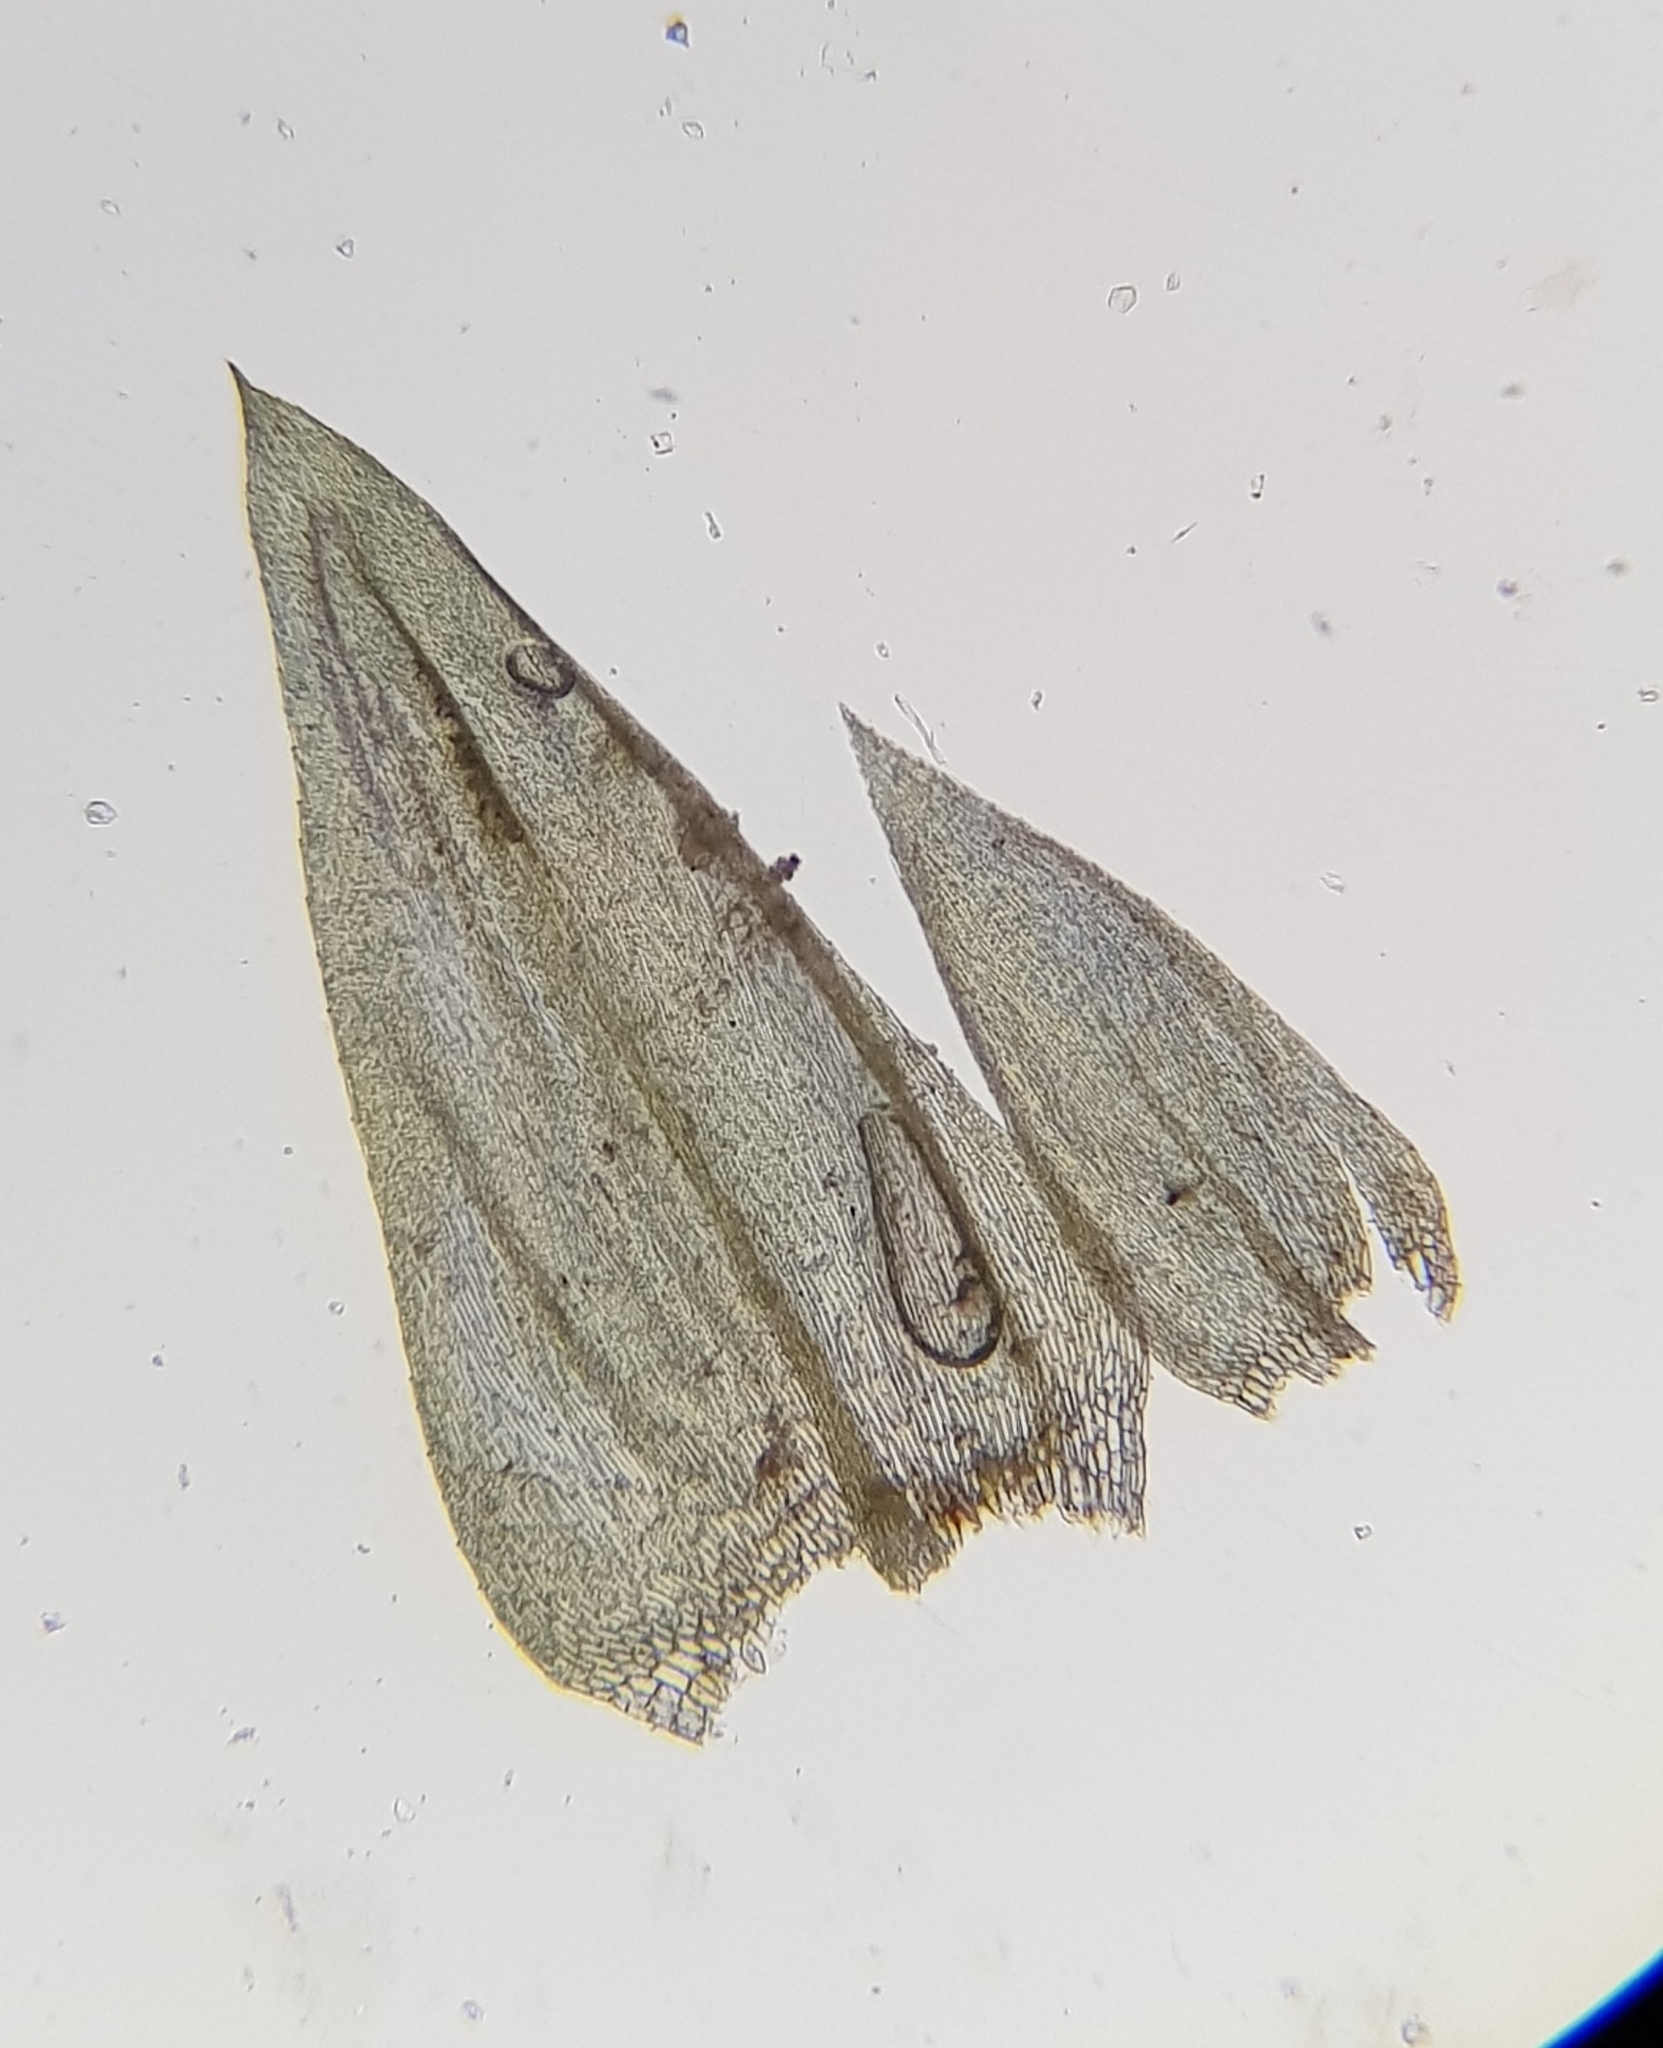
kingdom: Plantae
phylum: Bryophyta
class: Bryopsida
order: Hypnales
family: Brachytheciaceae
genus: Brachythecium
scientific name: Brachythecium rivulare
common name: River ragged moss
